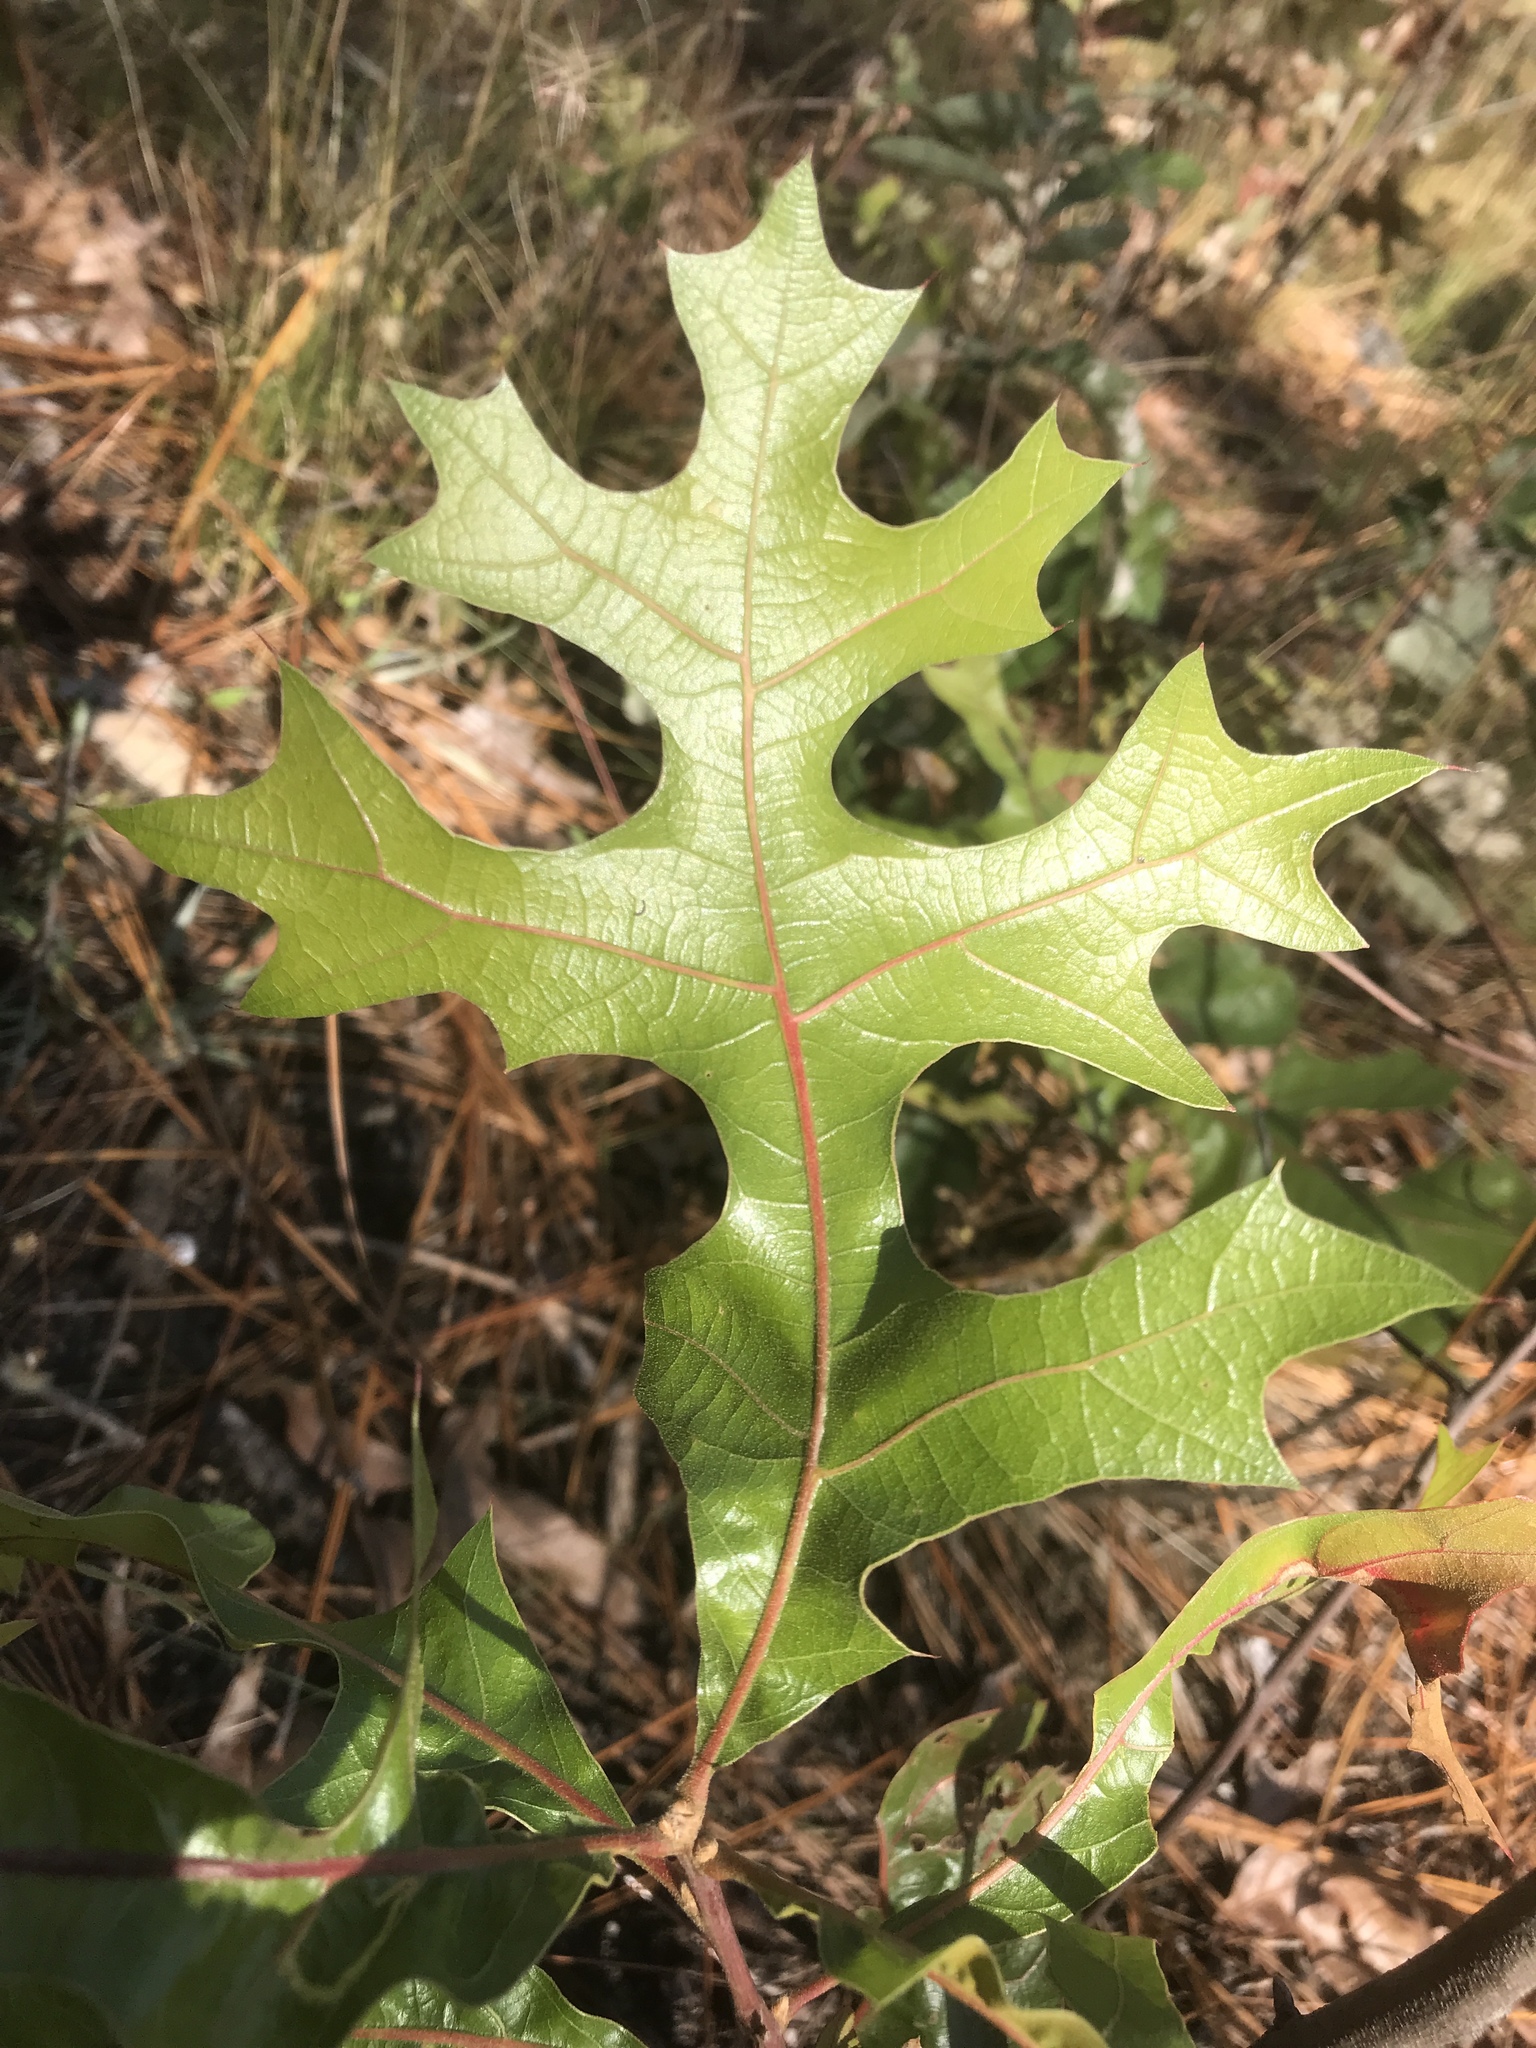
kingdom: Plantae
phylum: Tracheophyta
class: Magnoliopsida
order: Fagales
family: Fagaceae
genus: Quercus
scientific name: Quercus laevis
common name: Turkey oak
